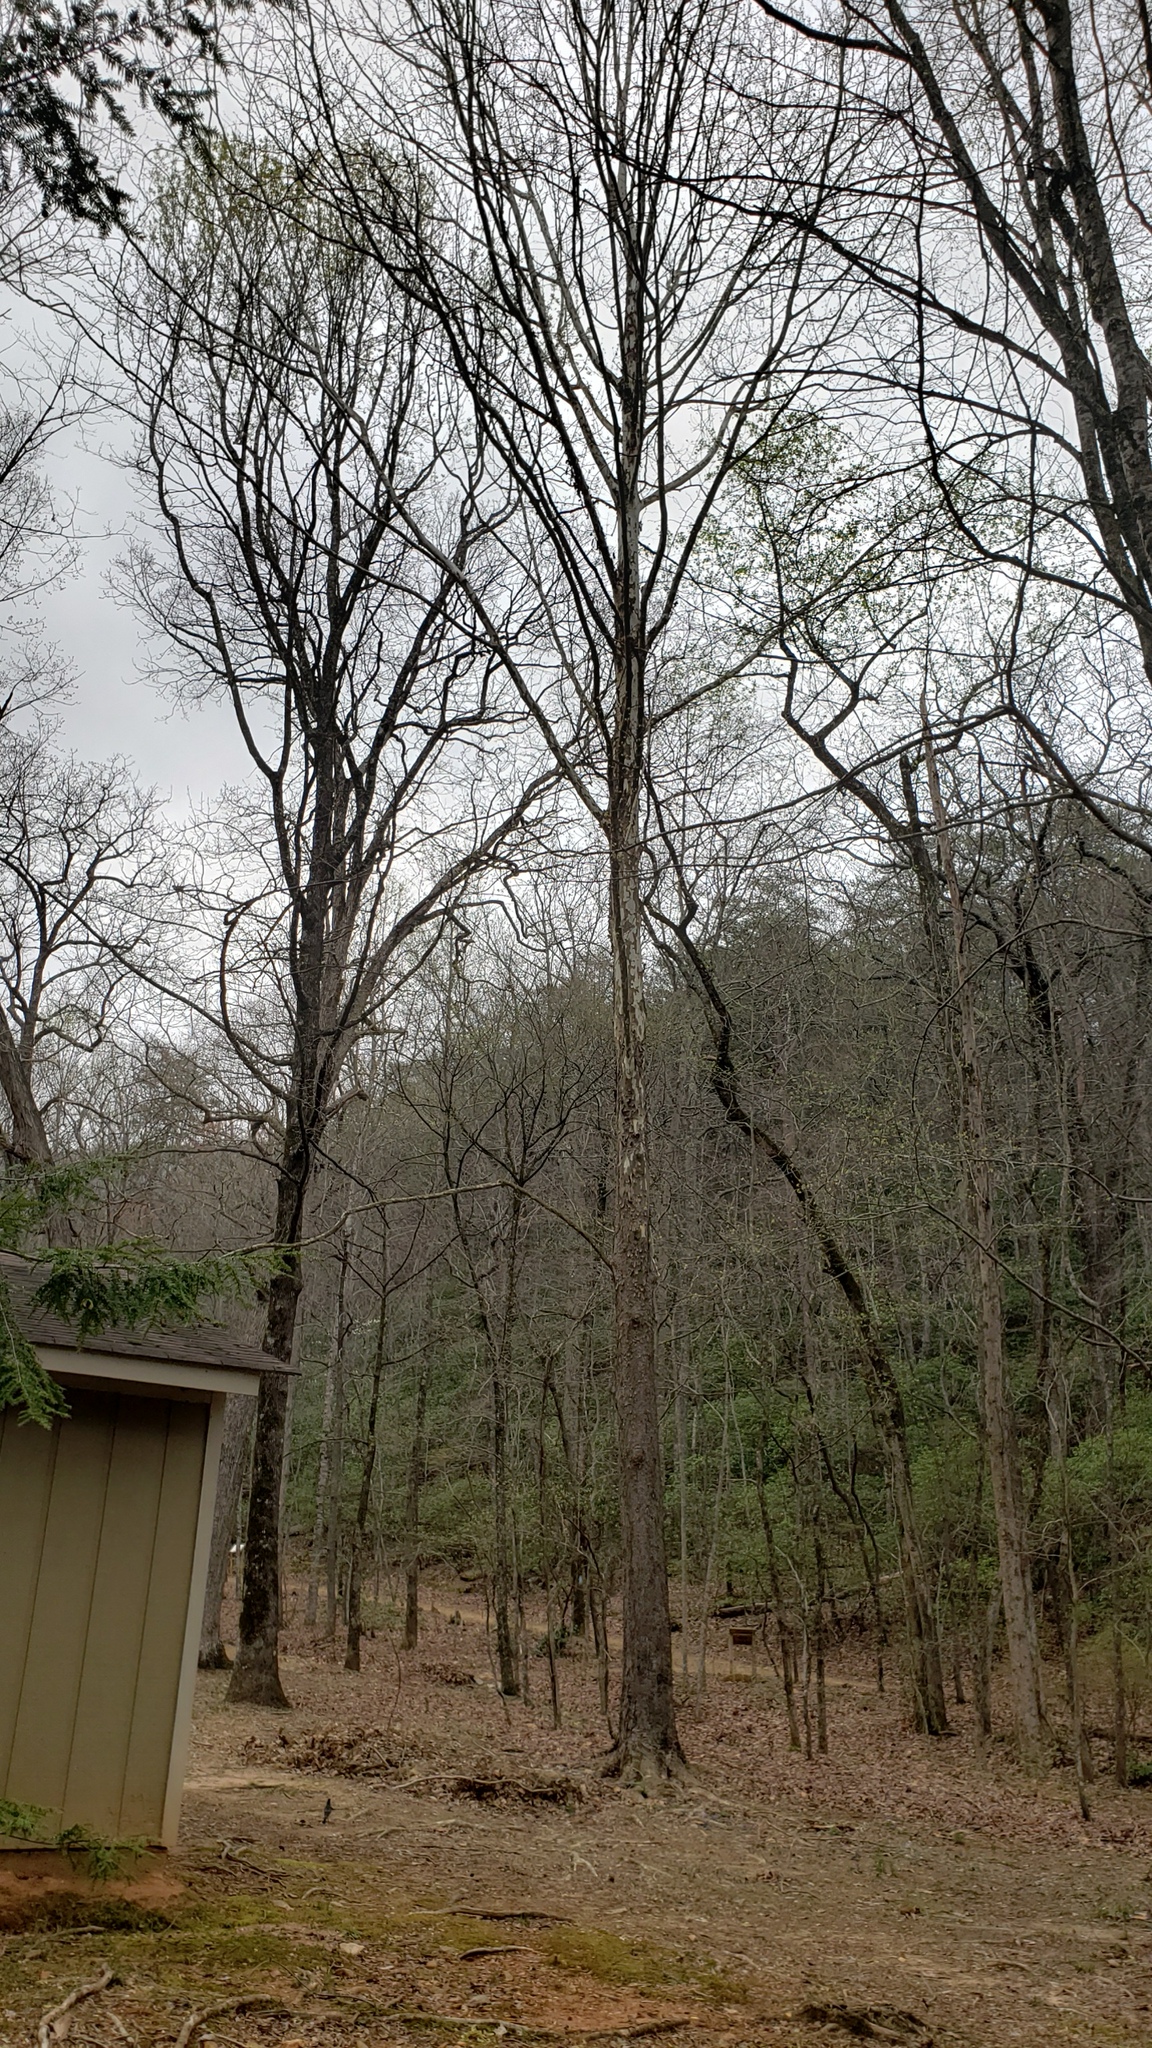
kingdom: Plantae
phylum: Tracheophyta
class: Magnoliopsida
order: Proteales
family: Platanaceae
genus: Platanus
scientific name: Platanus occidentalis
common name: American sycamore
